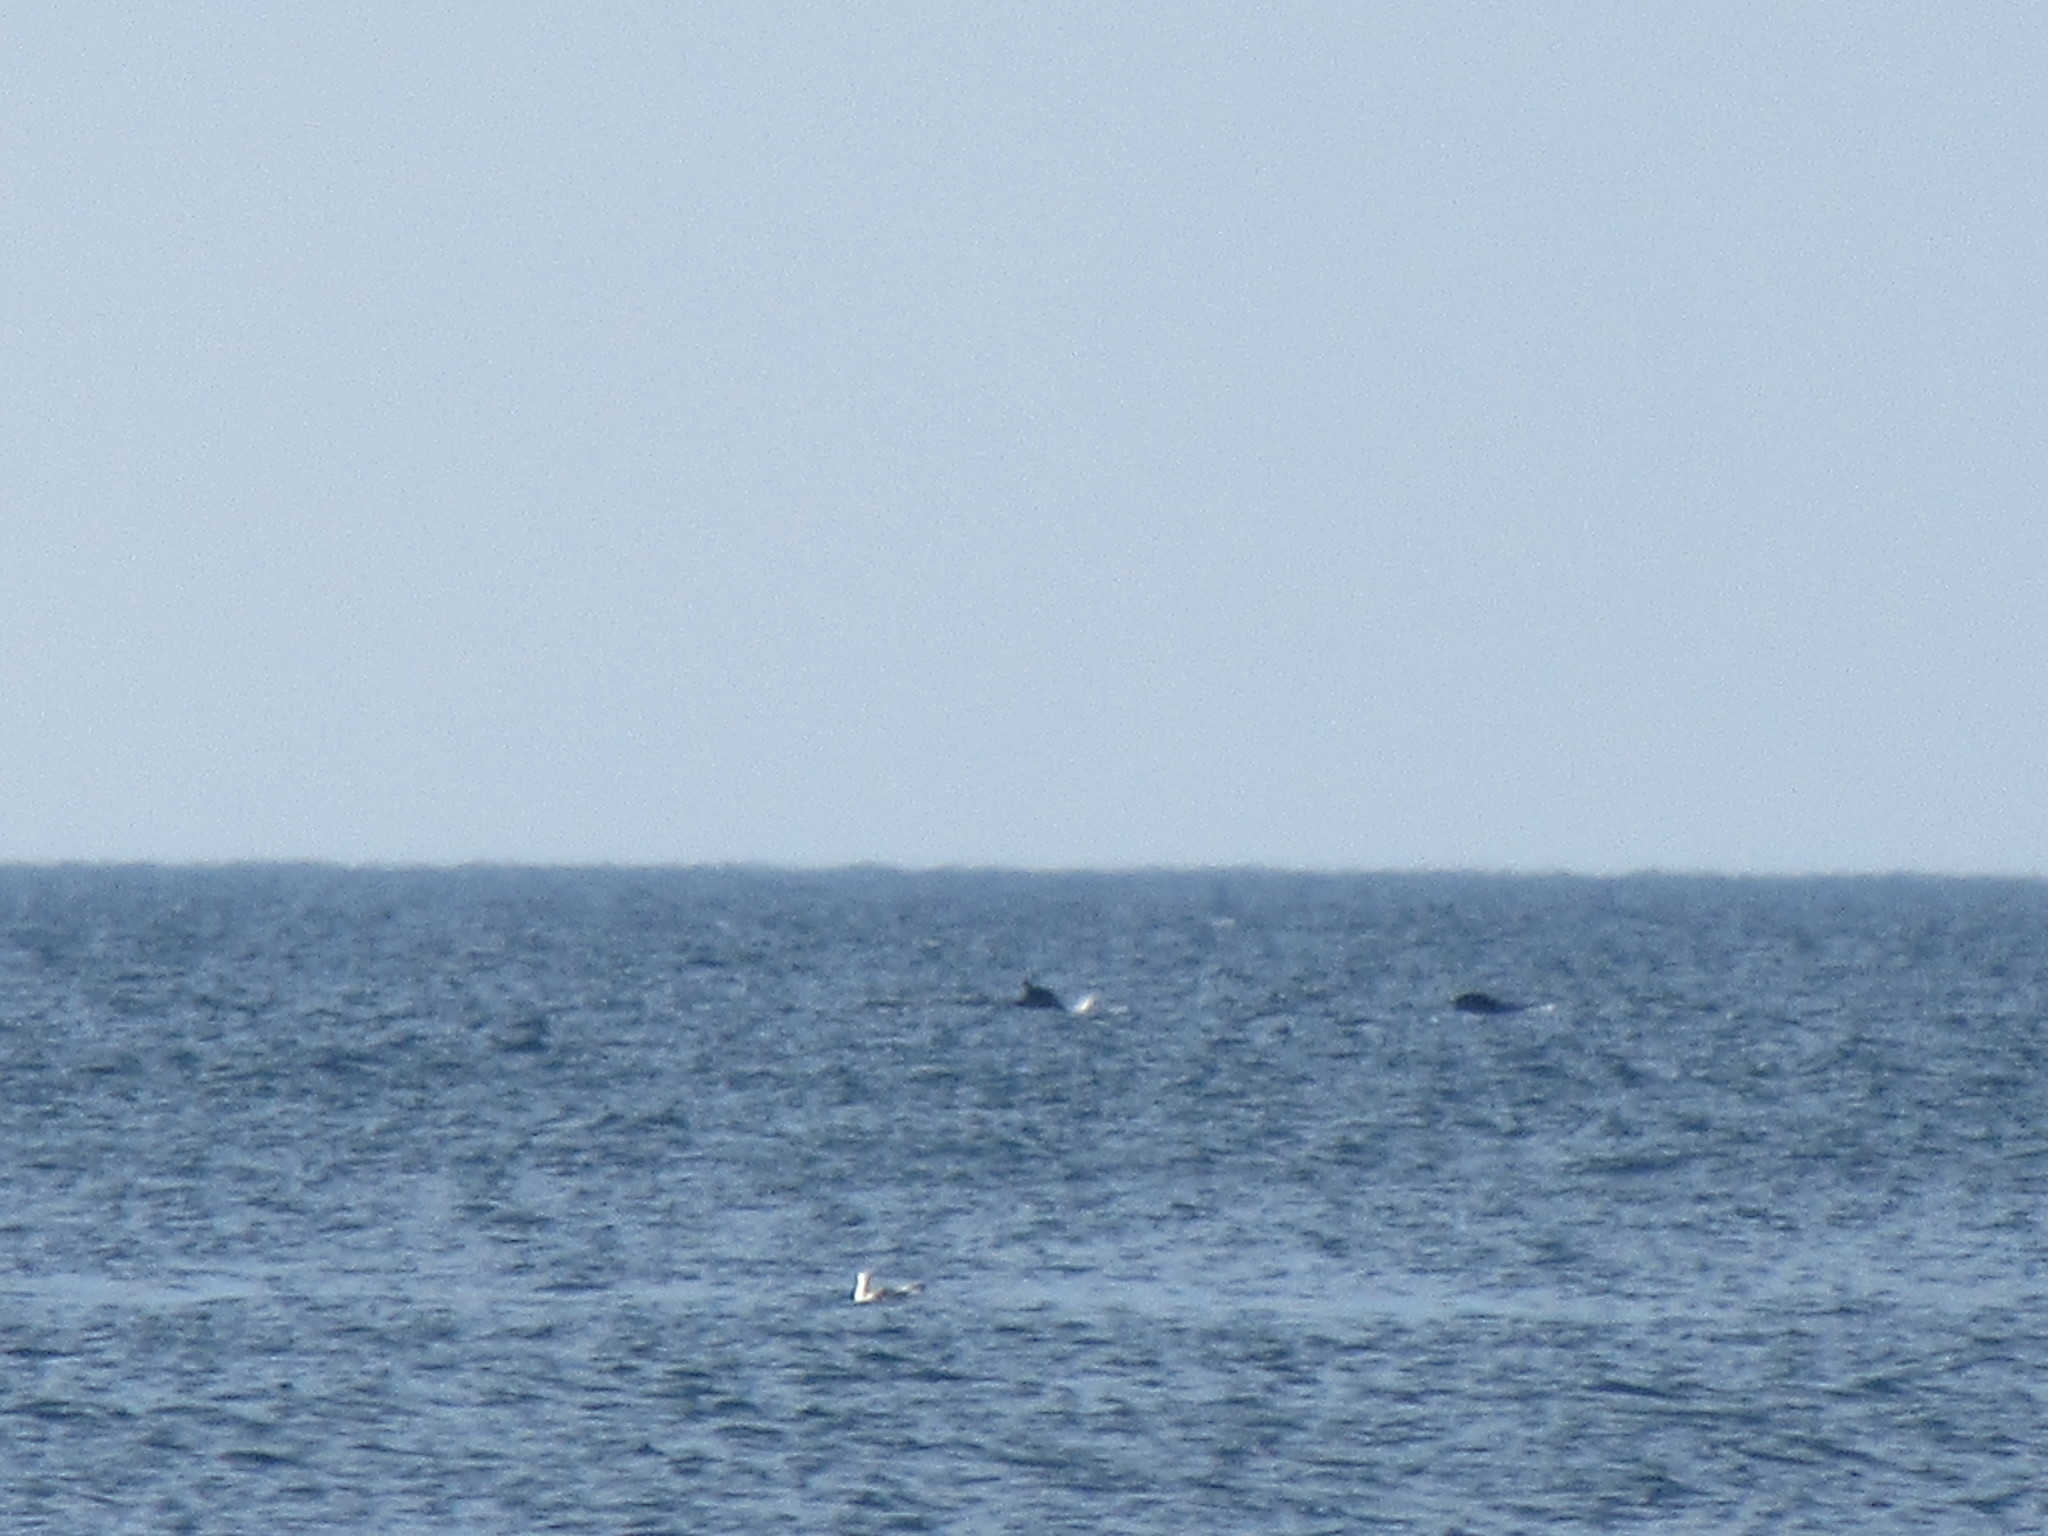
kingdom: Animalia
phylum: Chordata
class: Mammalia
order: Cetacea
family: Delphinidae
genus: Globicephala
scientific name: Globicephala melas
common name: Long-finned pilot whale
